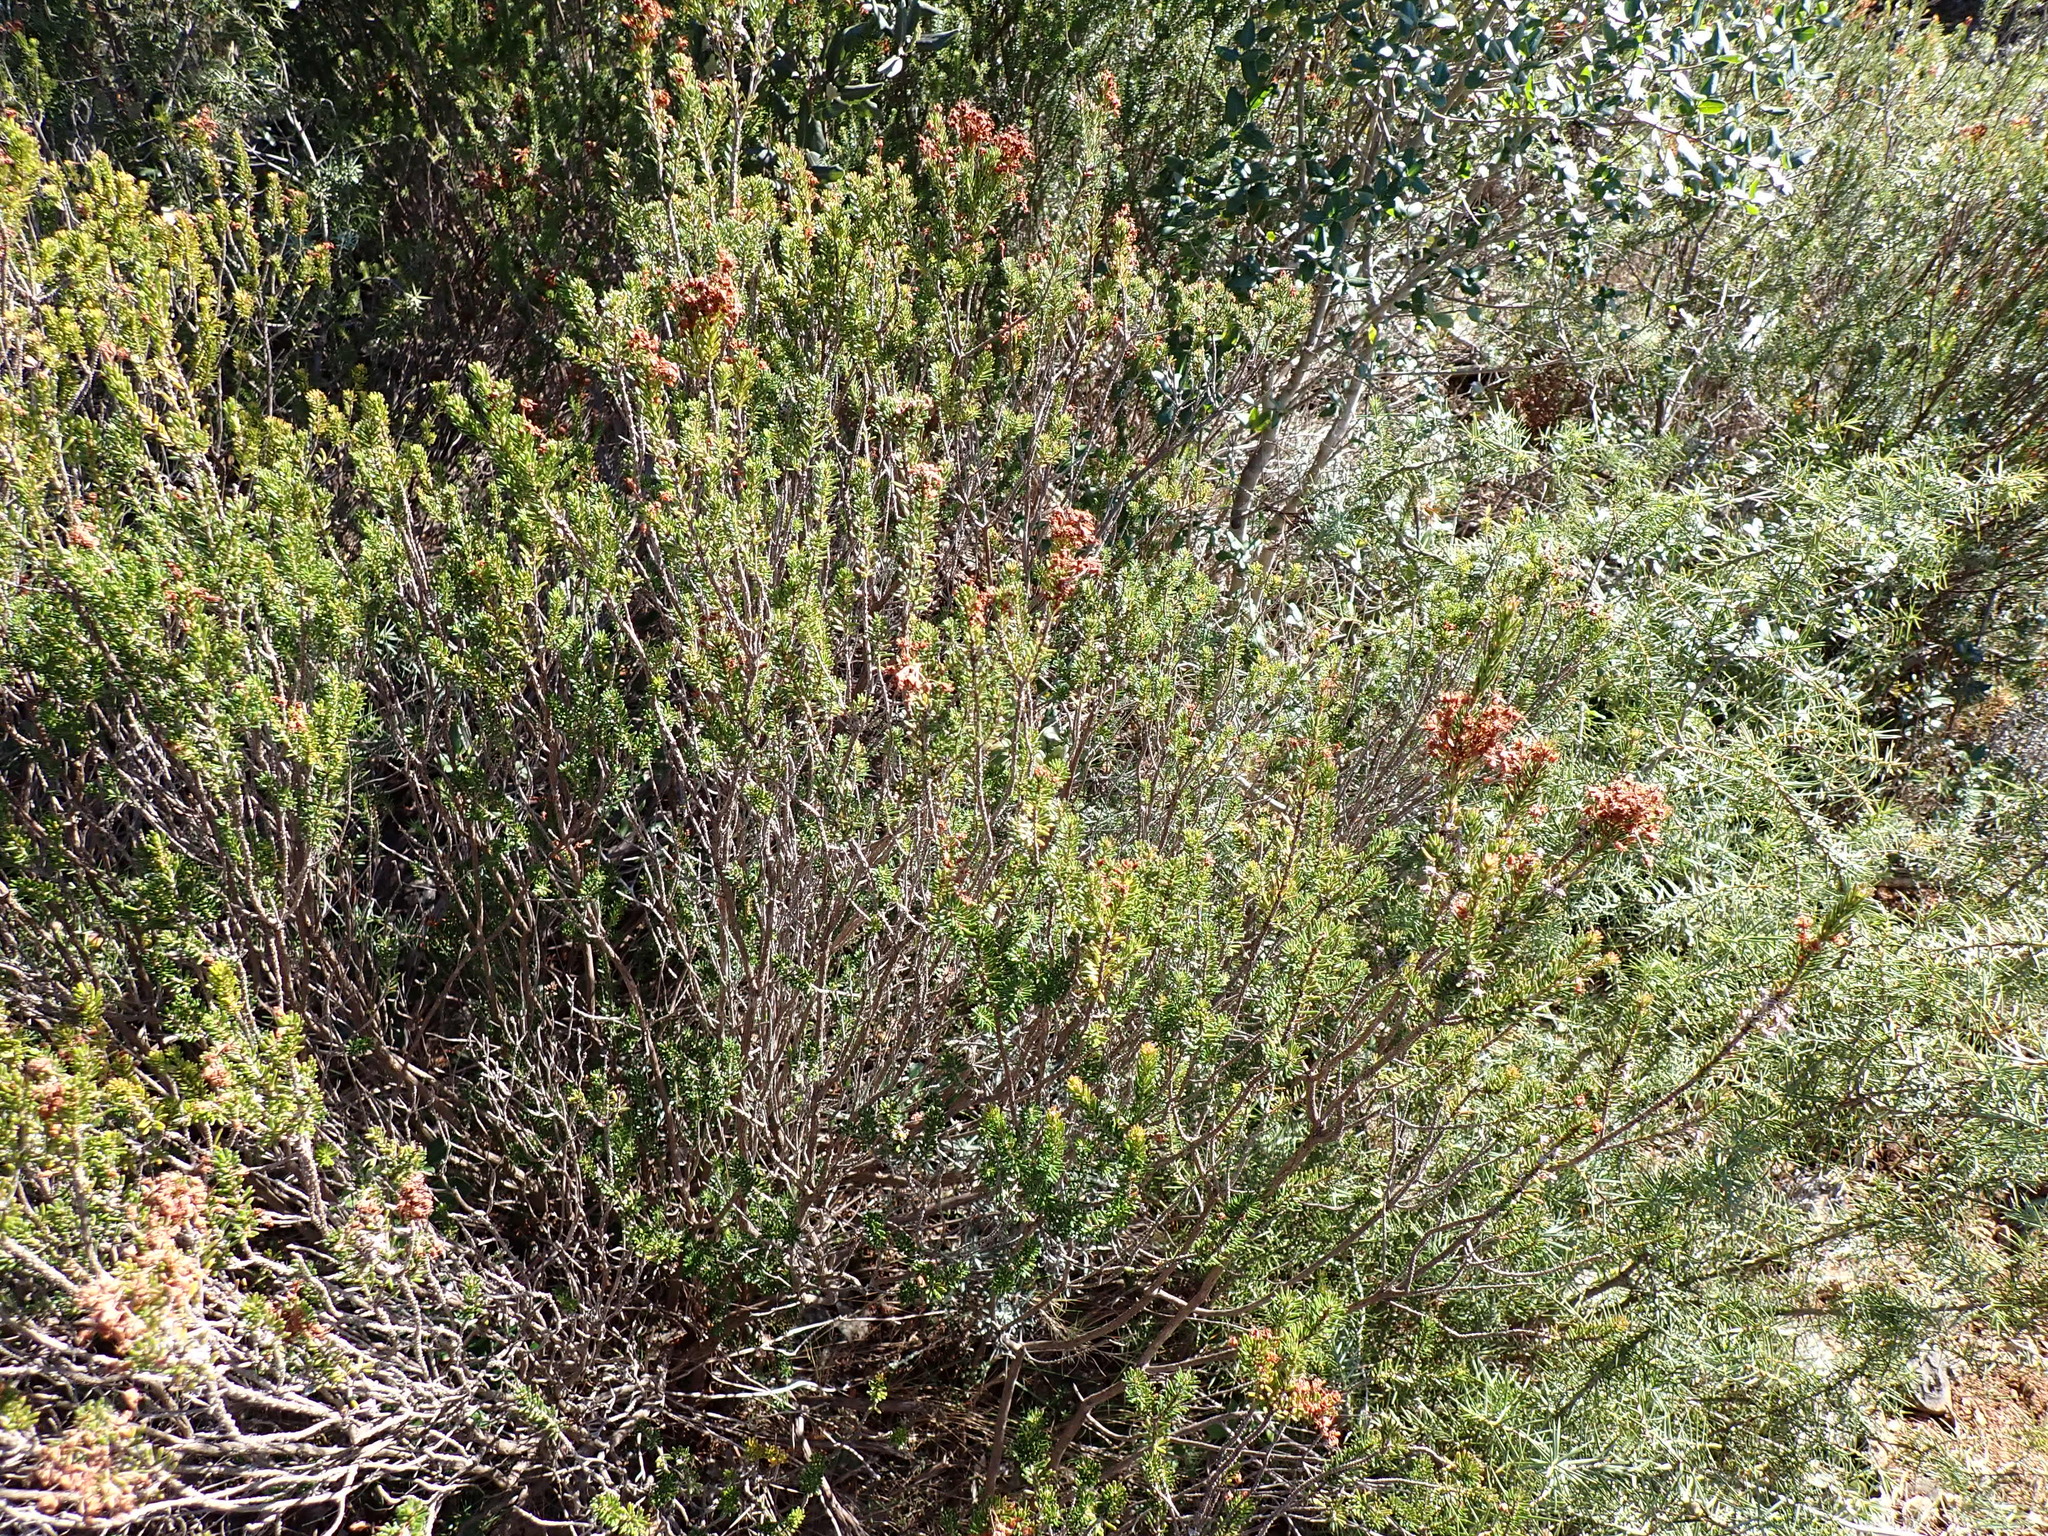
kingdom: Plantae
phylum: Tracheophyta
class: Magnoliopsida
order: Ericales
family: Ericaceae
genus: Erica
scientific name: Erica multiflora
